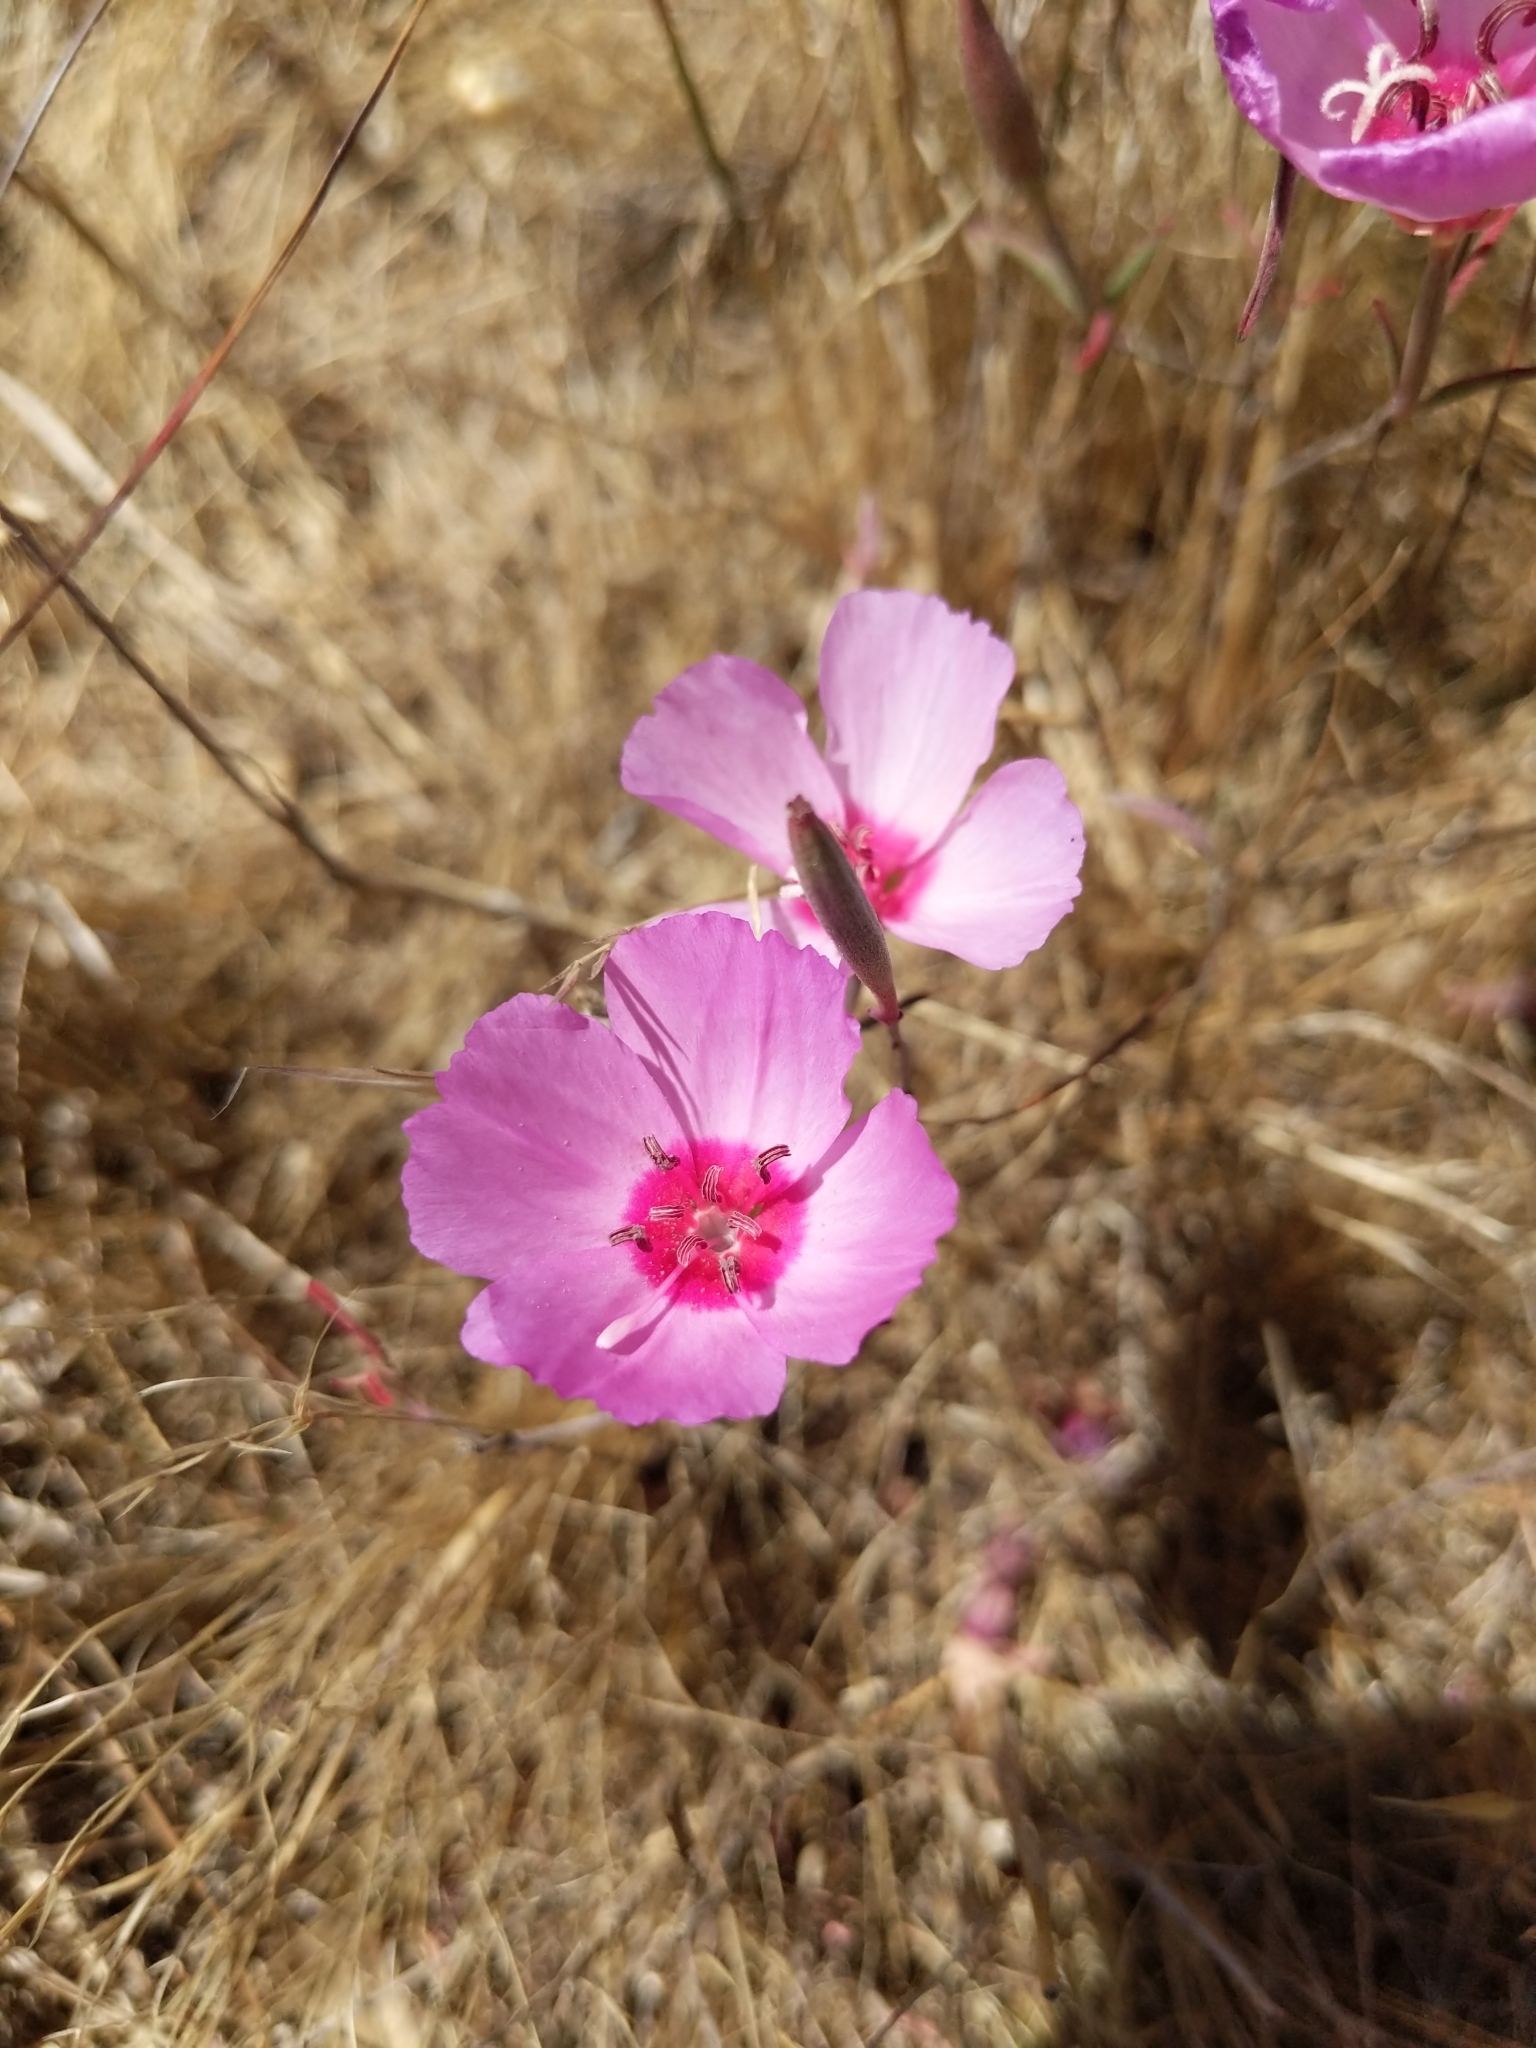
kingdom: Plantae
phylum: Tracheophyta
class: Magnoliopsida
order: Myrtales
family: Onagraceae
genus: Clarkia
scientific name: Clarkia rubicunda
